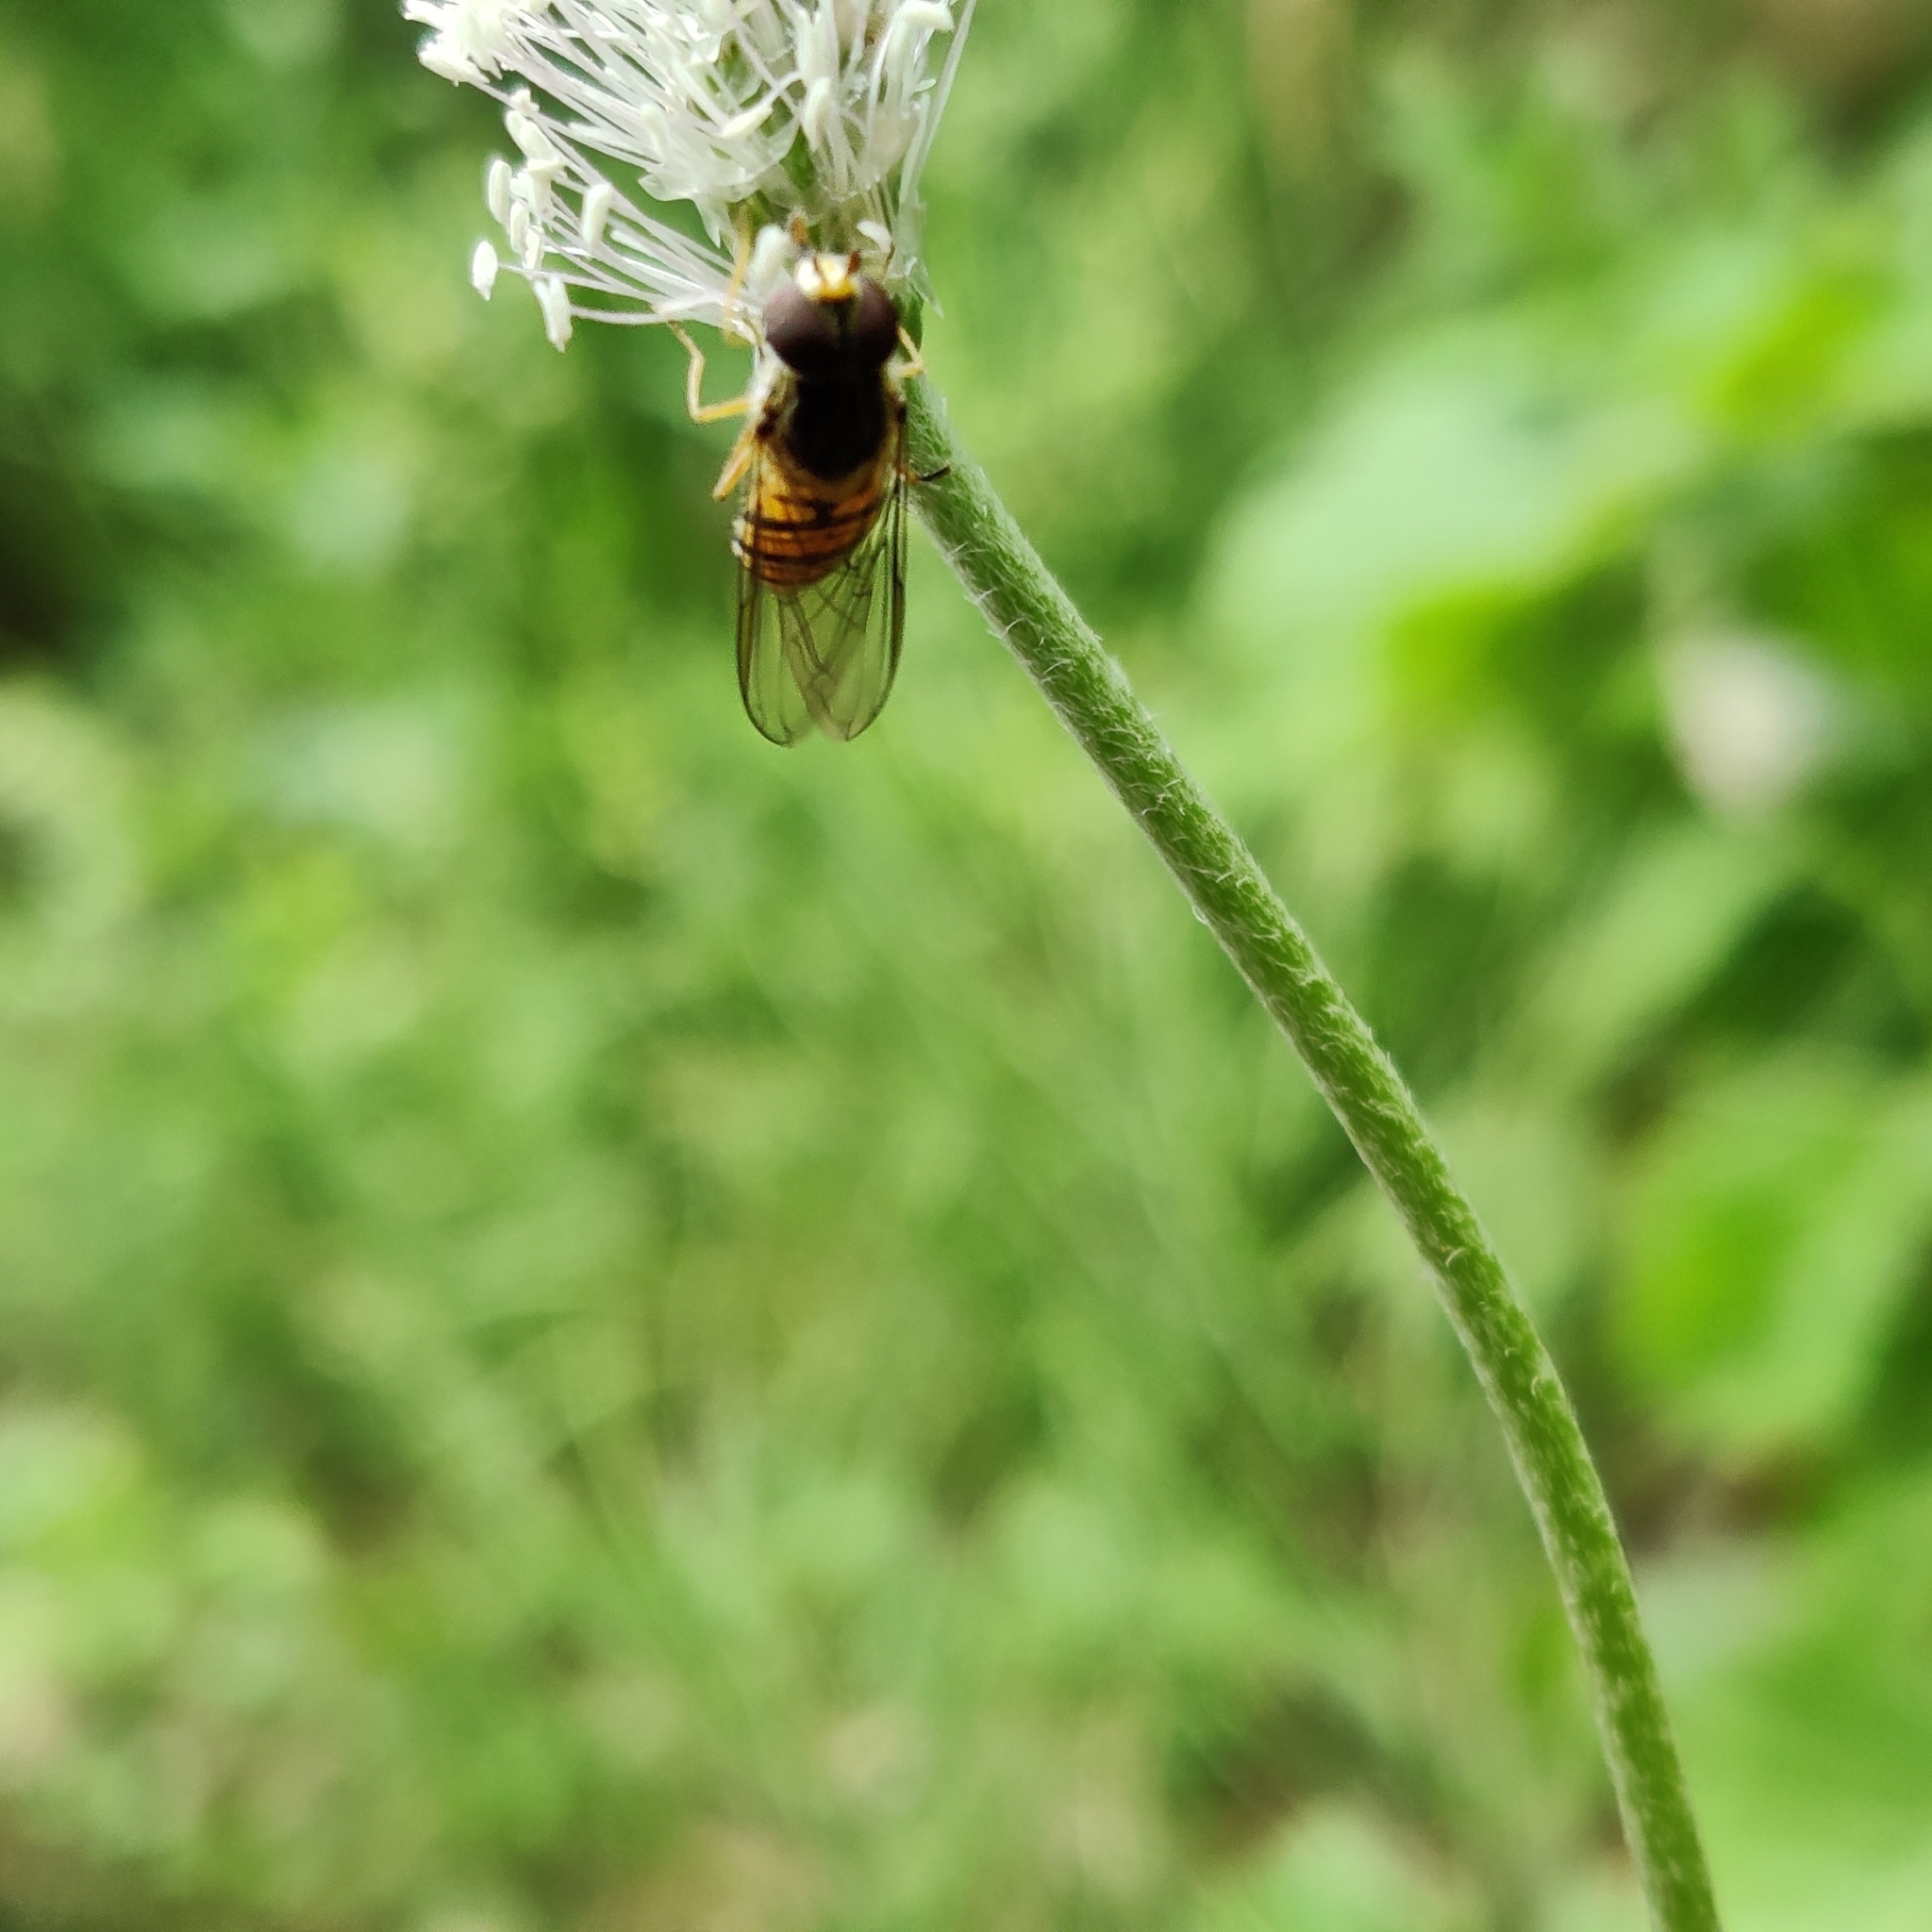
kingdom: Animalia
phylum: Arthropoda
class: Insecta
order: Diptera
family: Syrphidae
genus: Episyrphus
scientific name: Episyrphus balteatus
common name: Marmalade hoverfly
